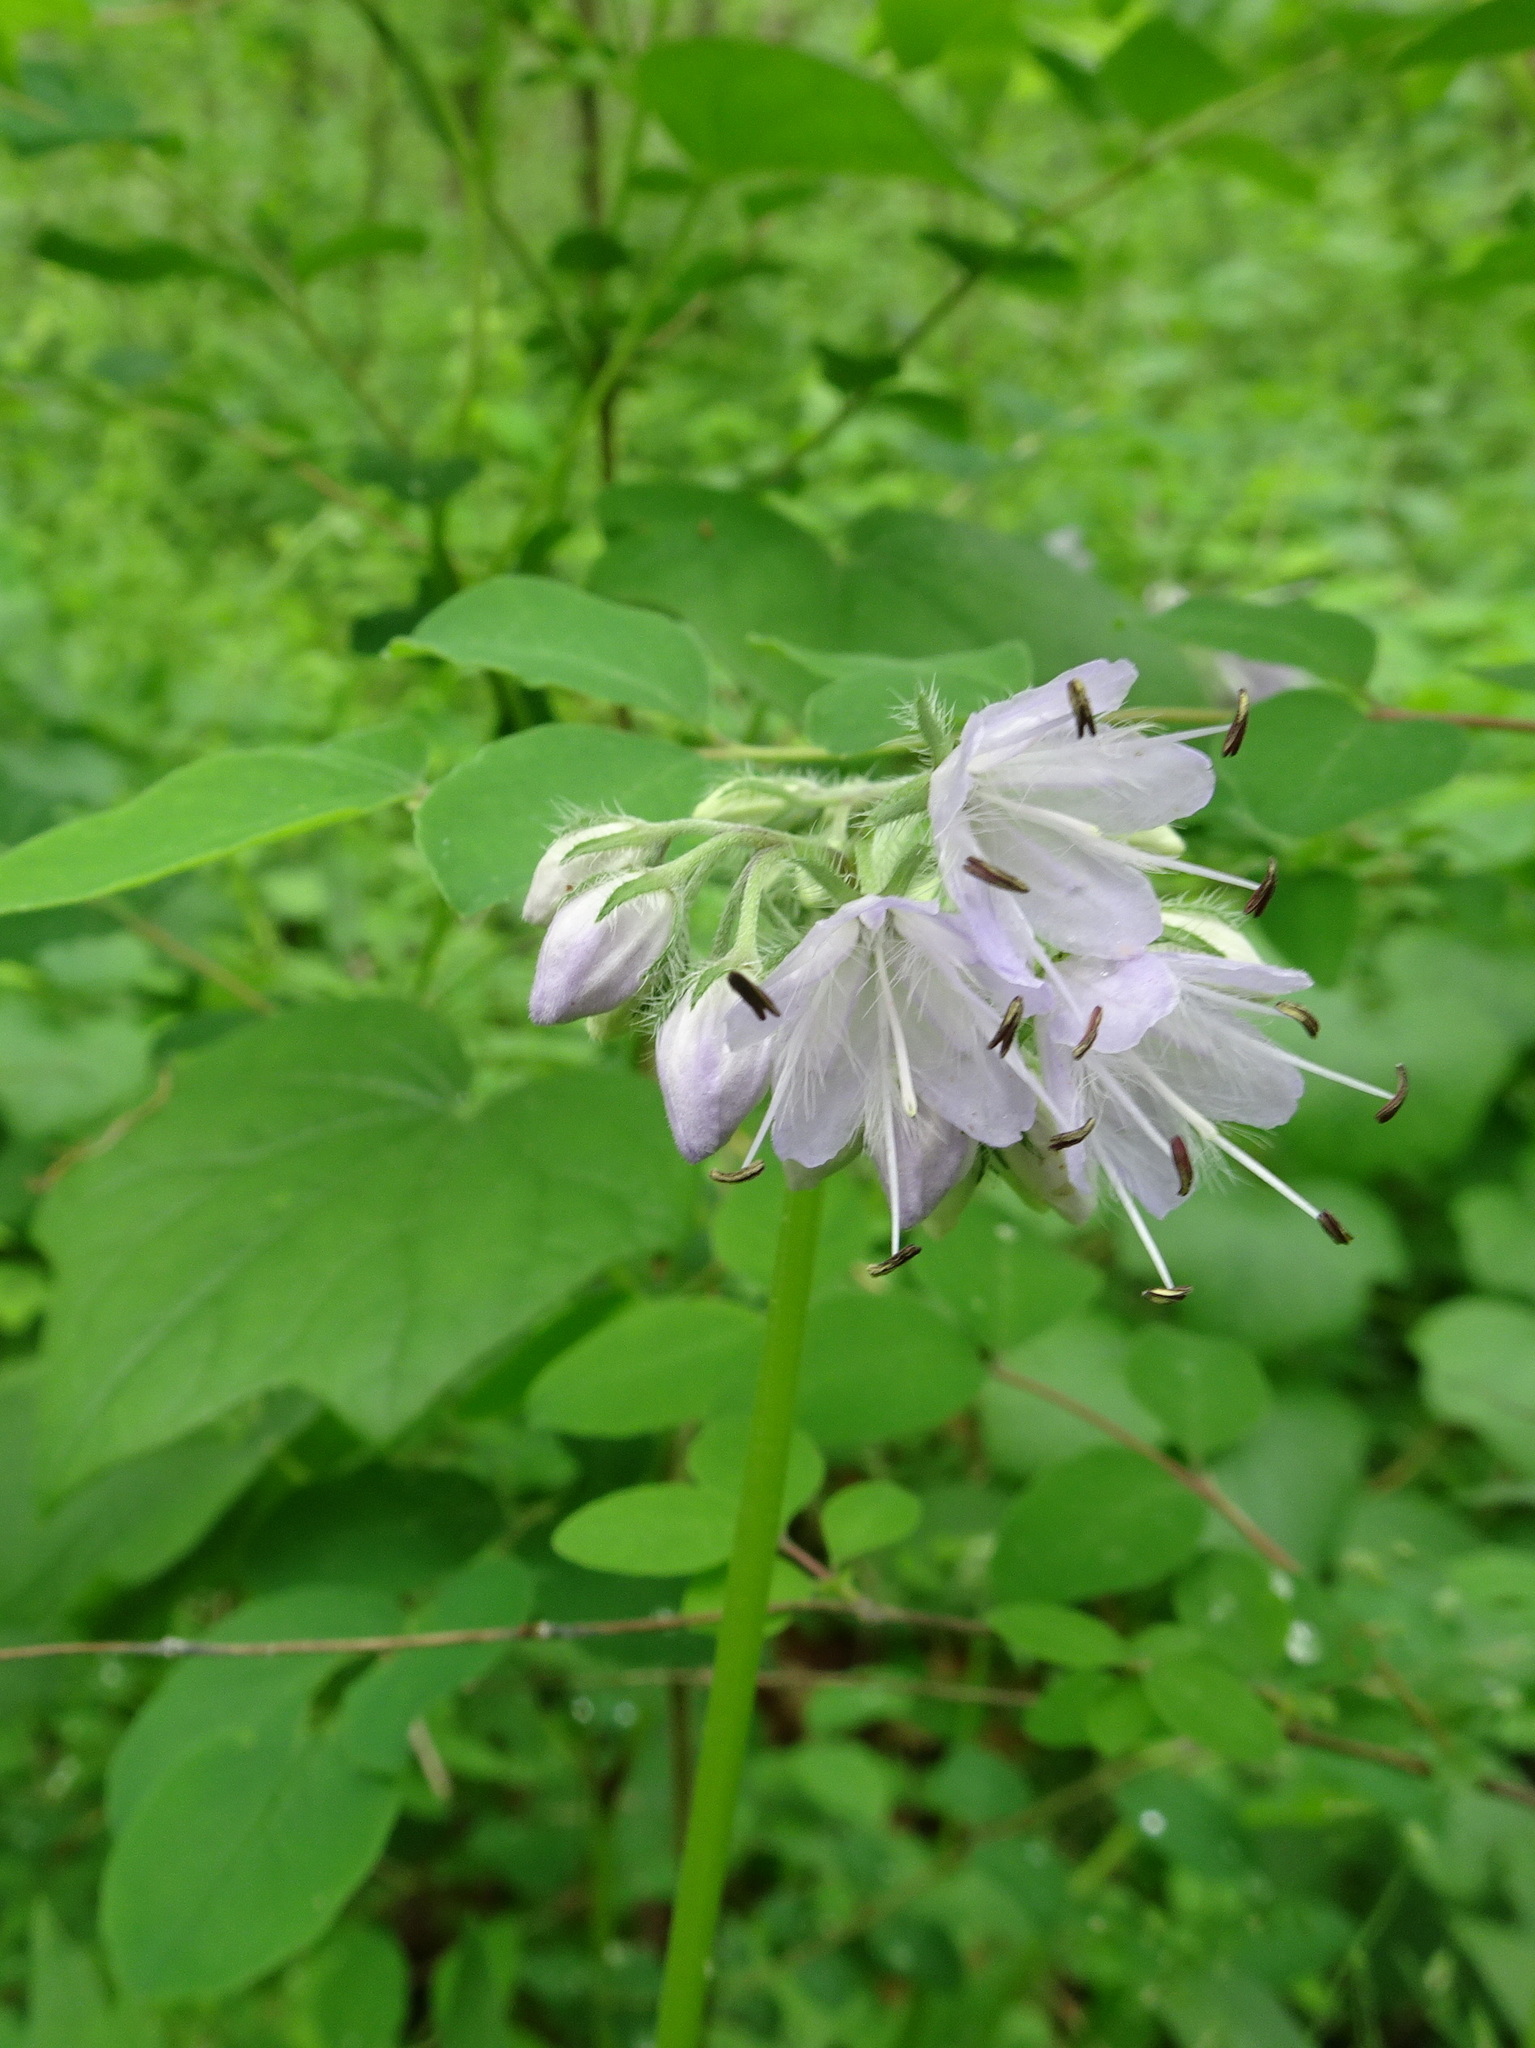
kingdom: Plantae
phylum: Tracheophyta
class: Magnoliopsida
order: Boraginales
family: Hydrophyllaceae
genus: Hydrophyllum
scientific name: Hydrophyllum virginianum
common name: Virginia waterleaf
